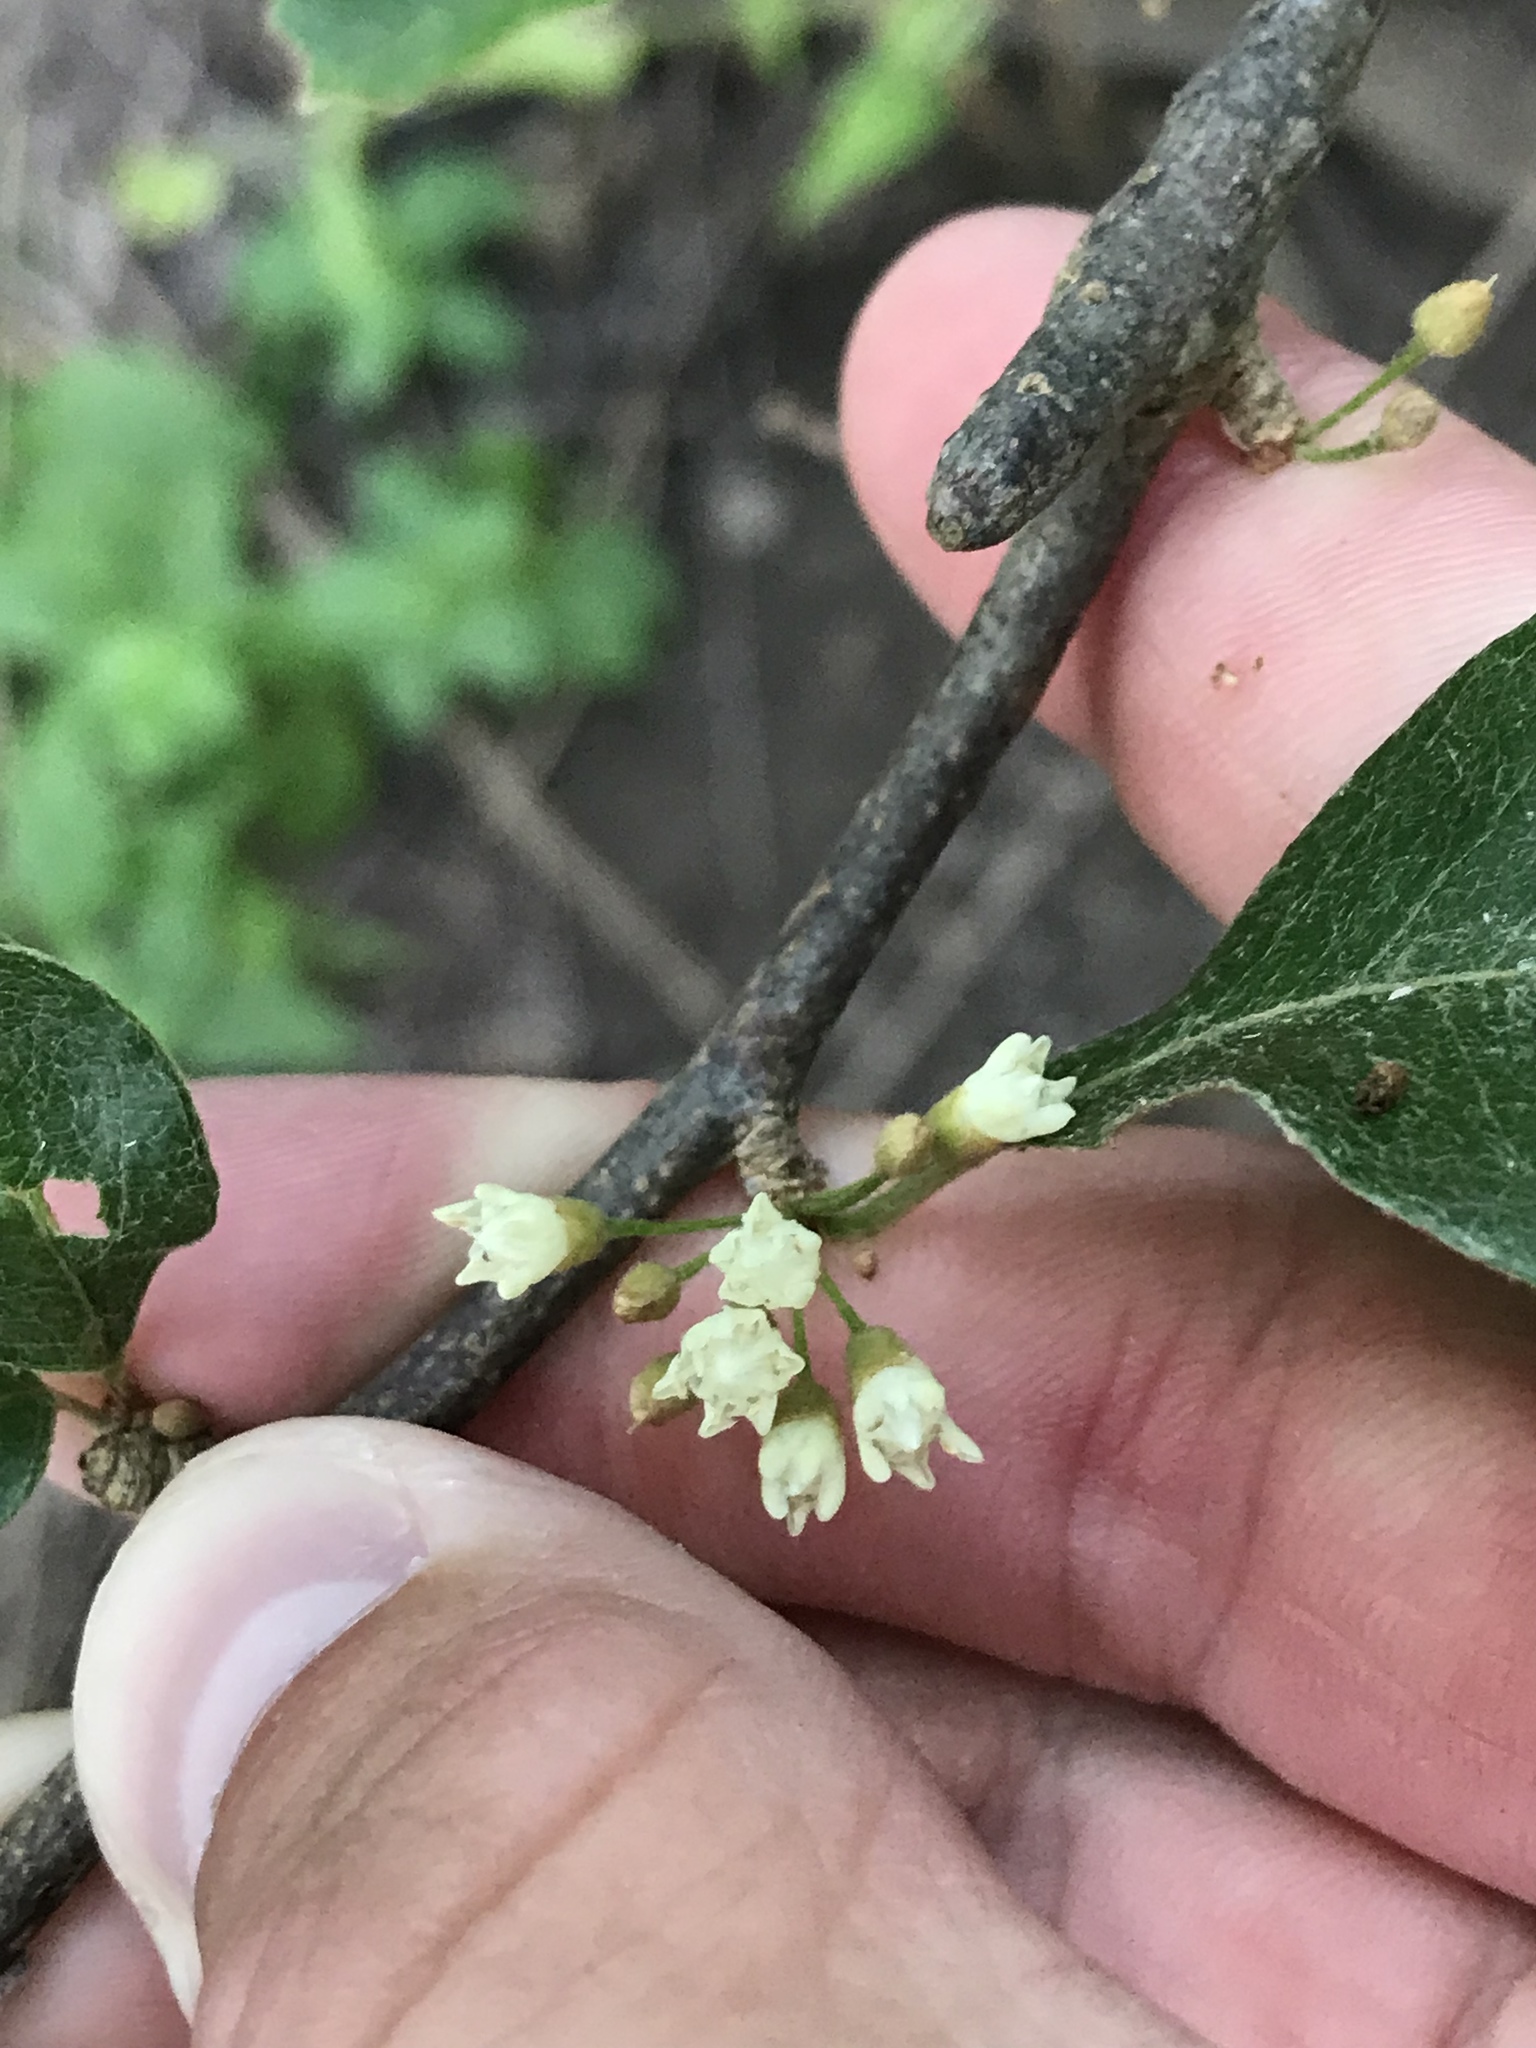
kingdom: Plantae
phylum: Tracheophyta
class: Magnoliopsida
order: Ericales
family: Sapotaceae
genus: Sideroxylon
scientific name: Sideroxylon lanuginosum
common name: Chittamwood
